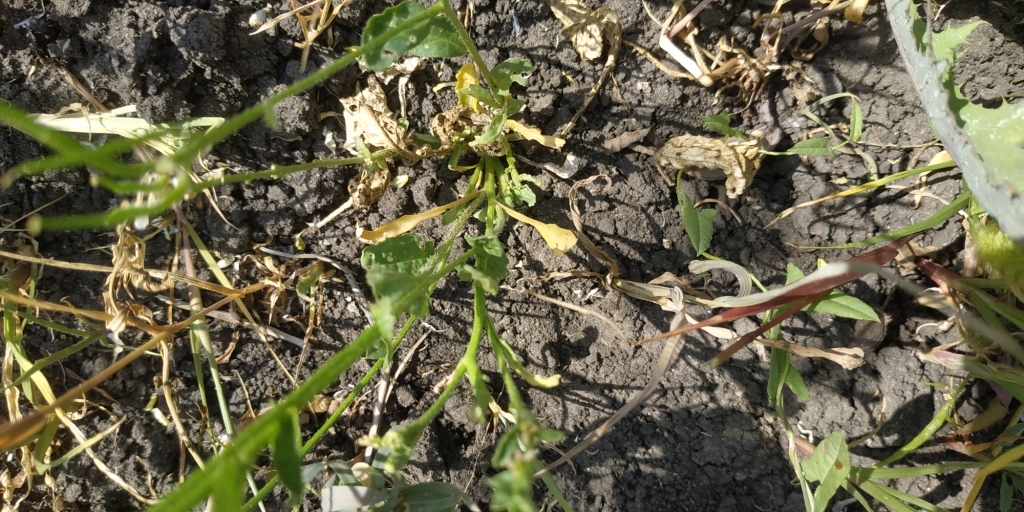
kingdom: Plantae
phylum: Tracheophyta
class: Magnoliopsida
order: Brassicales
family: Brassicaceae
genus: Sinapis
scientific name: Sinapis arvensis
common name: Charlock
